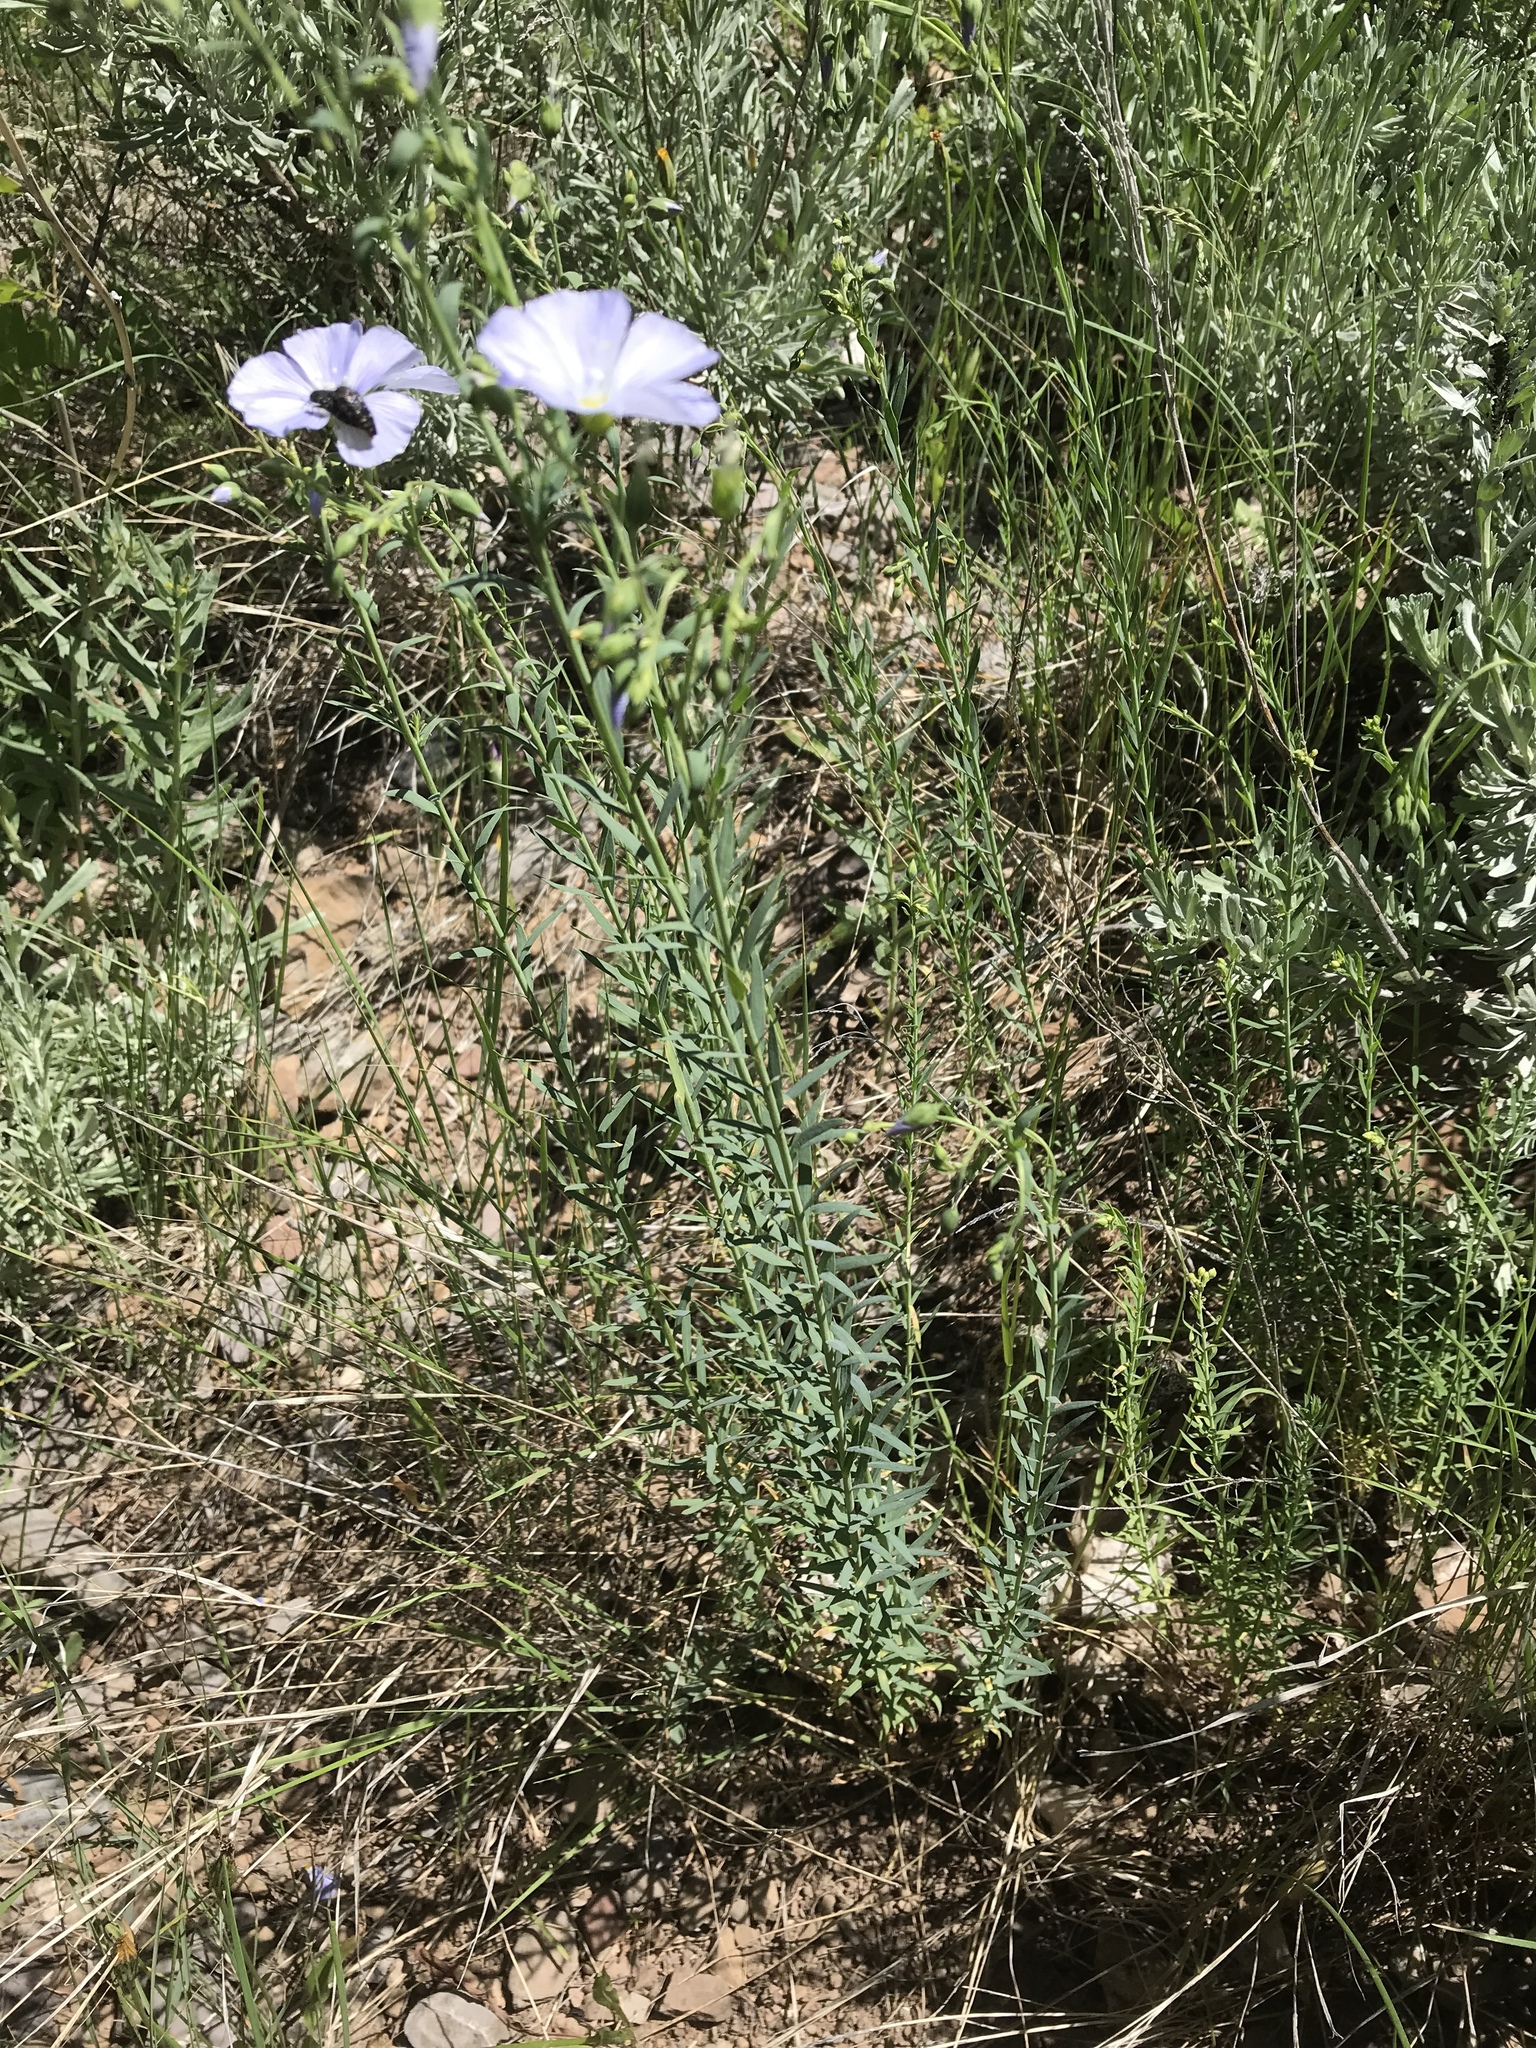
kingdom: Plantae
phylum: Tracheophyta
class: Magnoliopsida
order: Malpighiales
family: Linaceae
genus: Linum
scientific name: Linum lewisii
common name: Prairie flax
